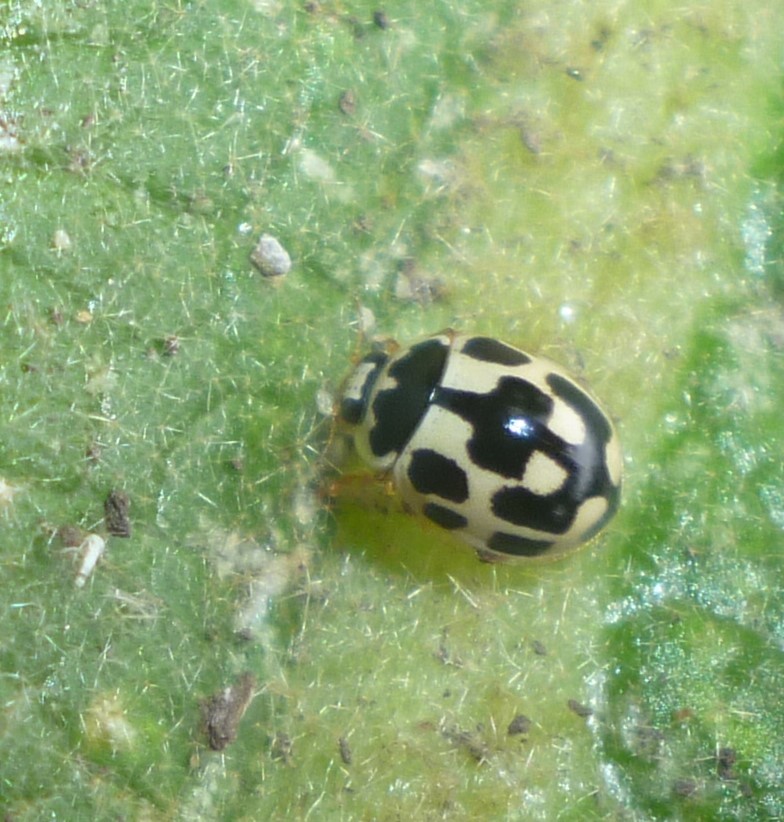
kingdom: Animalia
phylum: Arthropoda
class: Insecta
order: Coleoptera
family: Coccinellidae
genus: Propylaea
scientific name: Propylaea quatuordecimpunctata
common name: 14-spotted ladybird beetle
